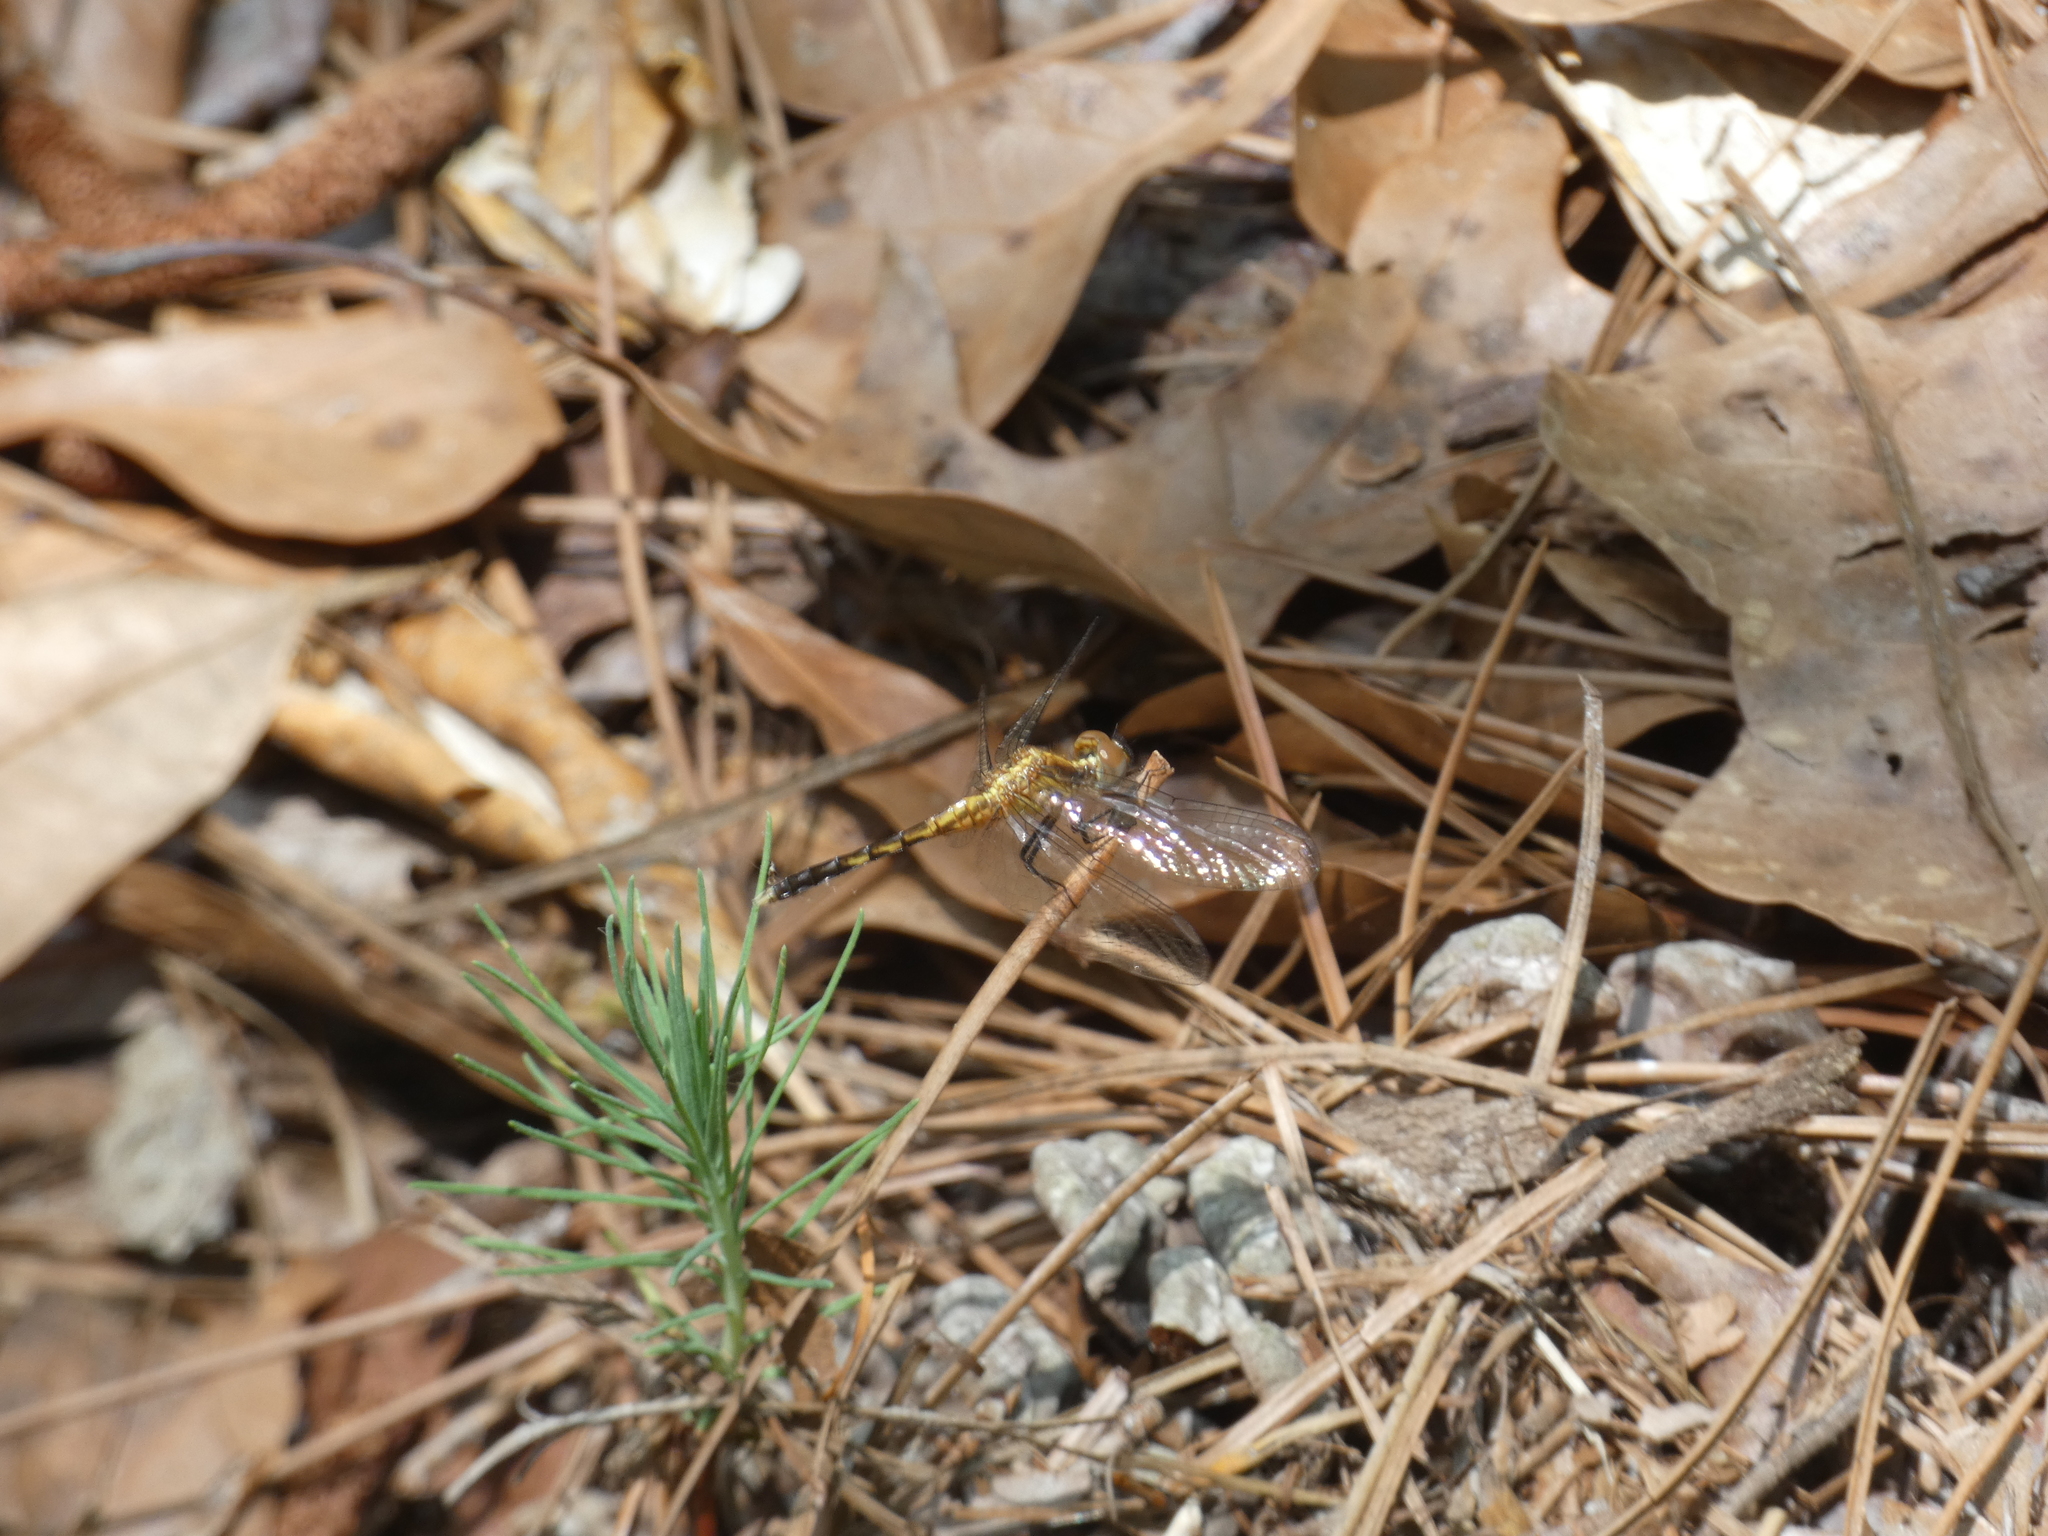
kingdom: Animalia
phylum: Arthropoda
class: Insecta
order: Odonata
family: Libellulidae
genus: Erythrodiplax
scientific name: Erythrodiplax minuscula
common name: Little blue dragonlet
